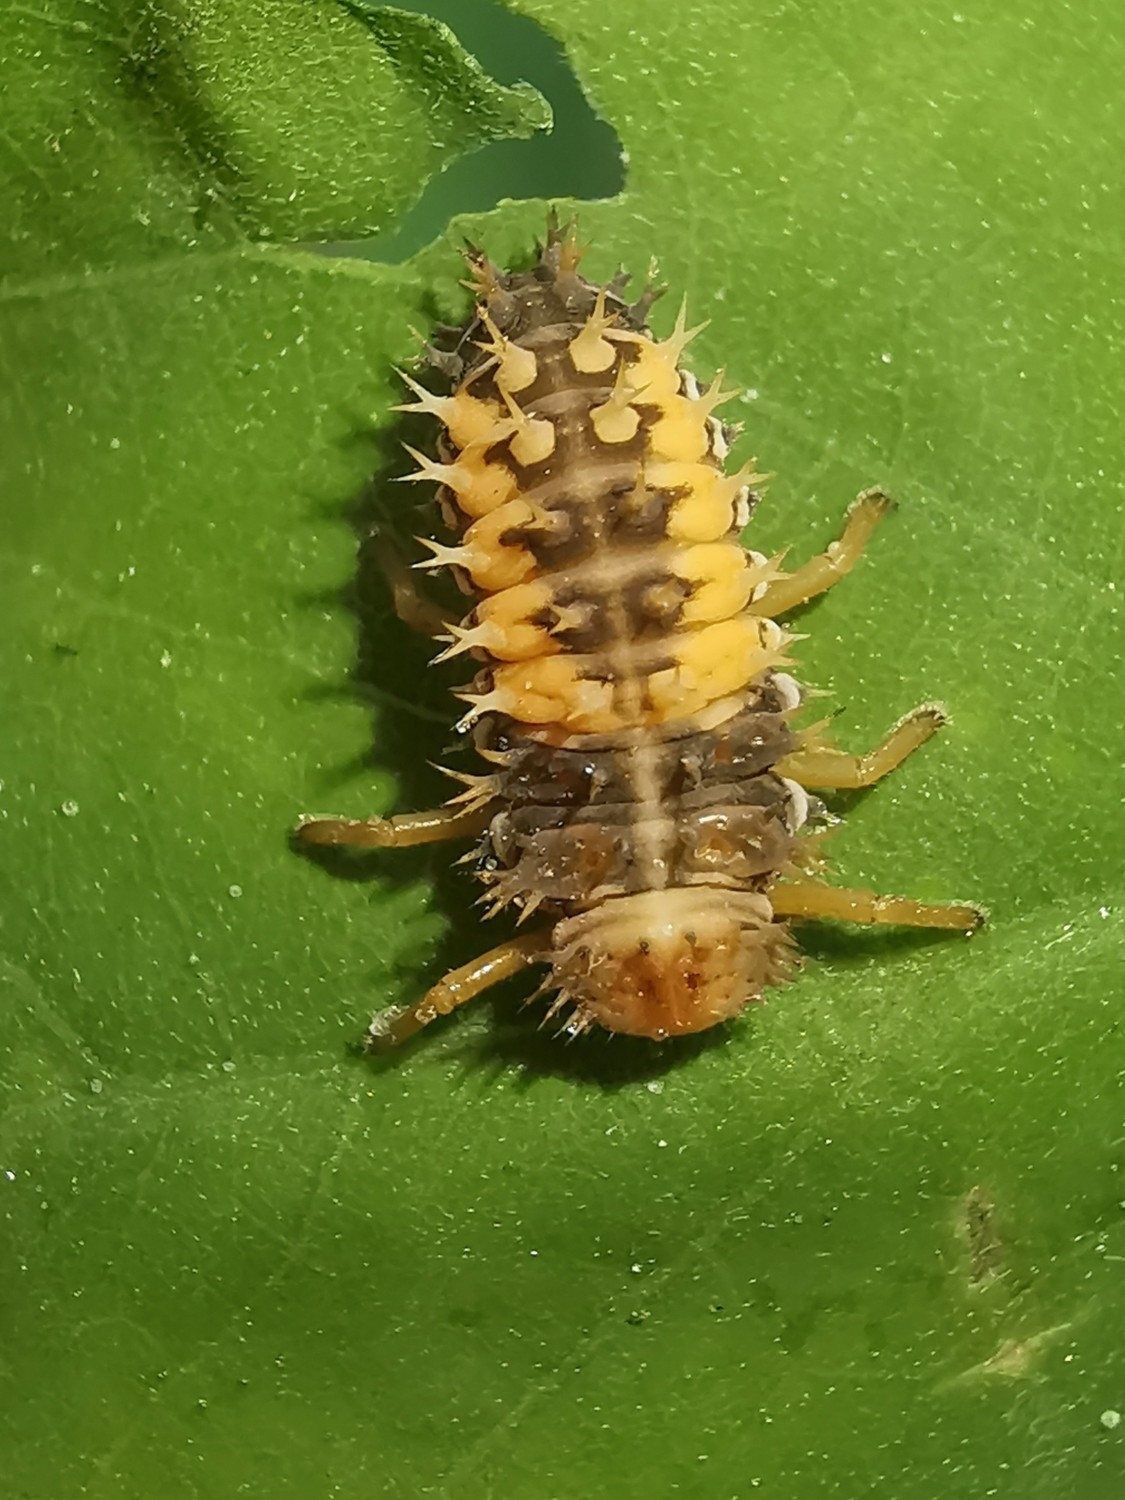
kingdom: Animalia
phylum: Arthropoda
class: Insecta
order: Coleoptera
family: Coccinellidae
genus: Harmonia
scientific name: Harmonia axyridis
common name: Harlequin ladybird
